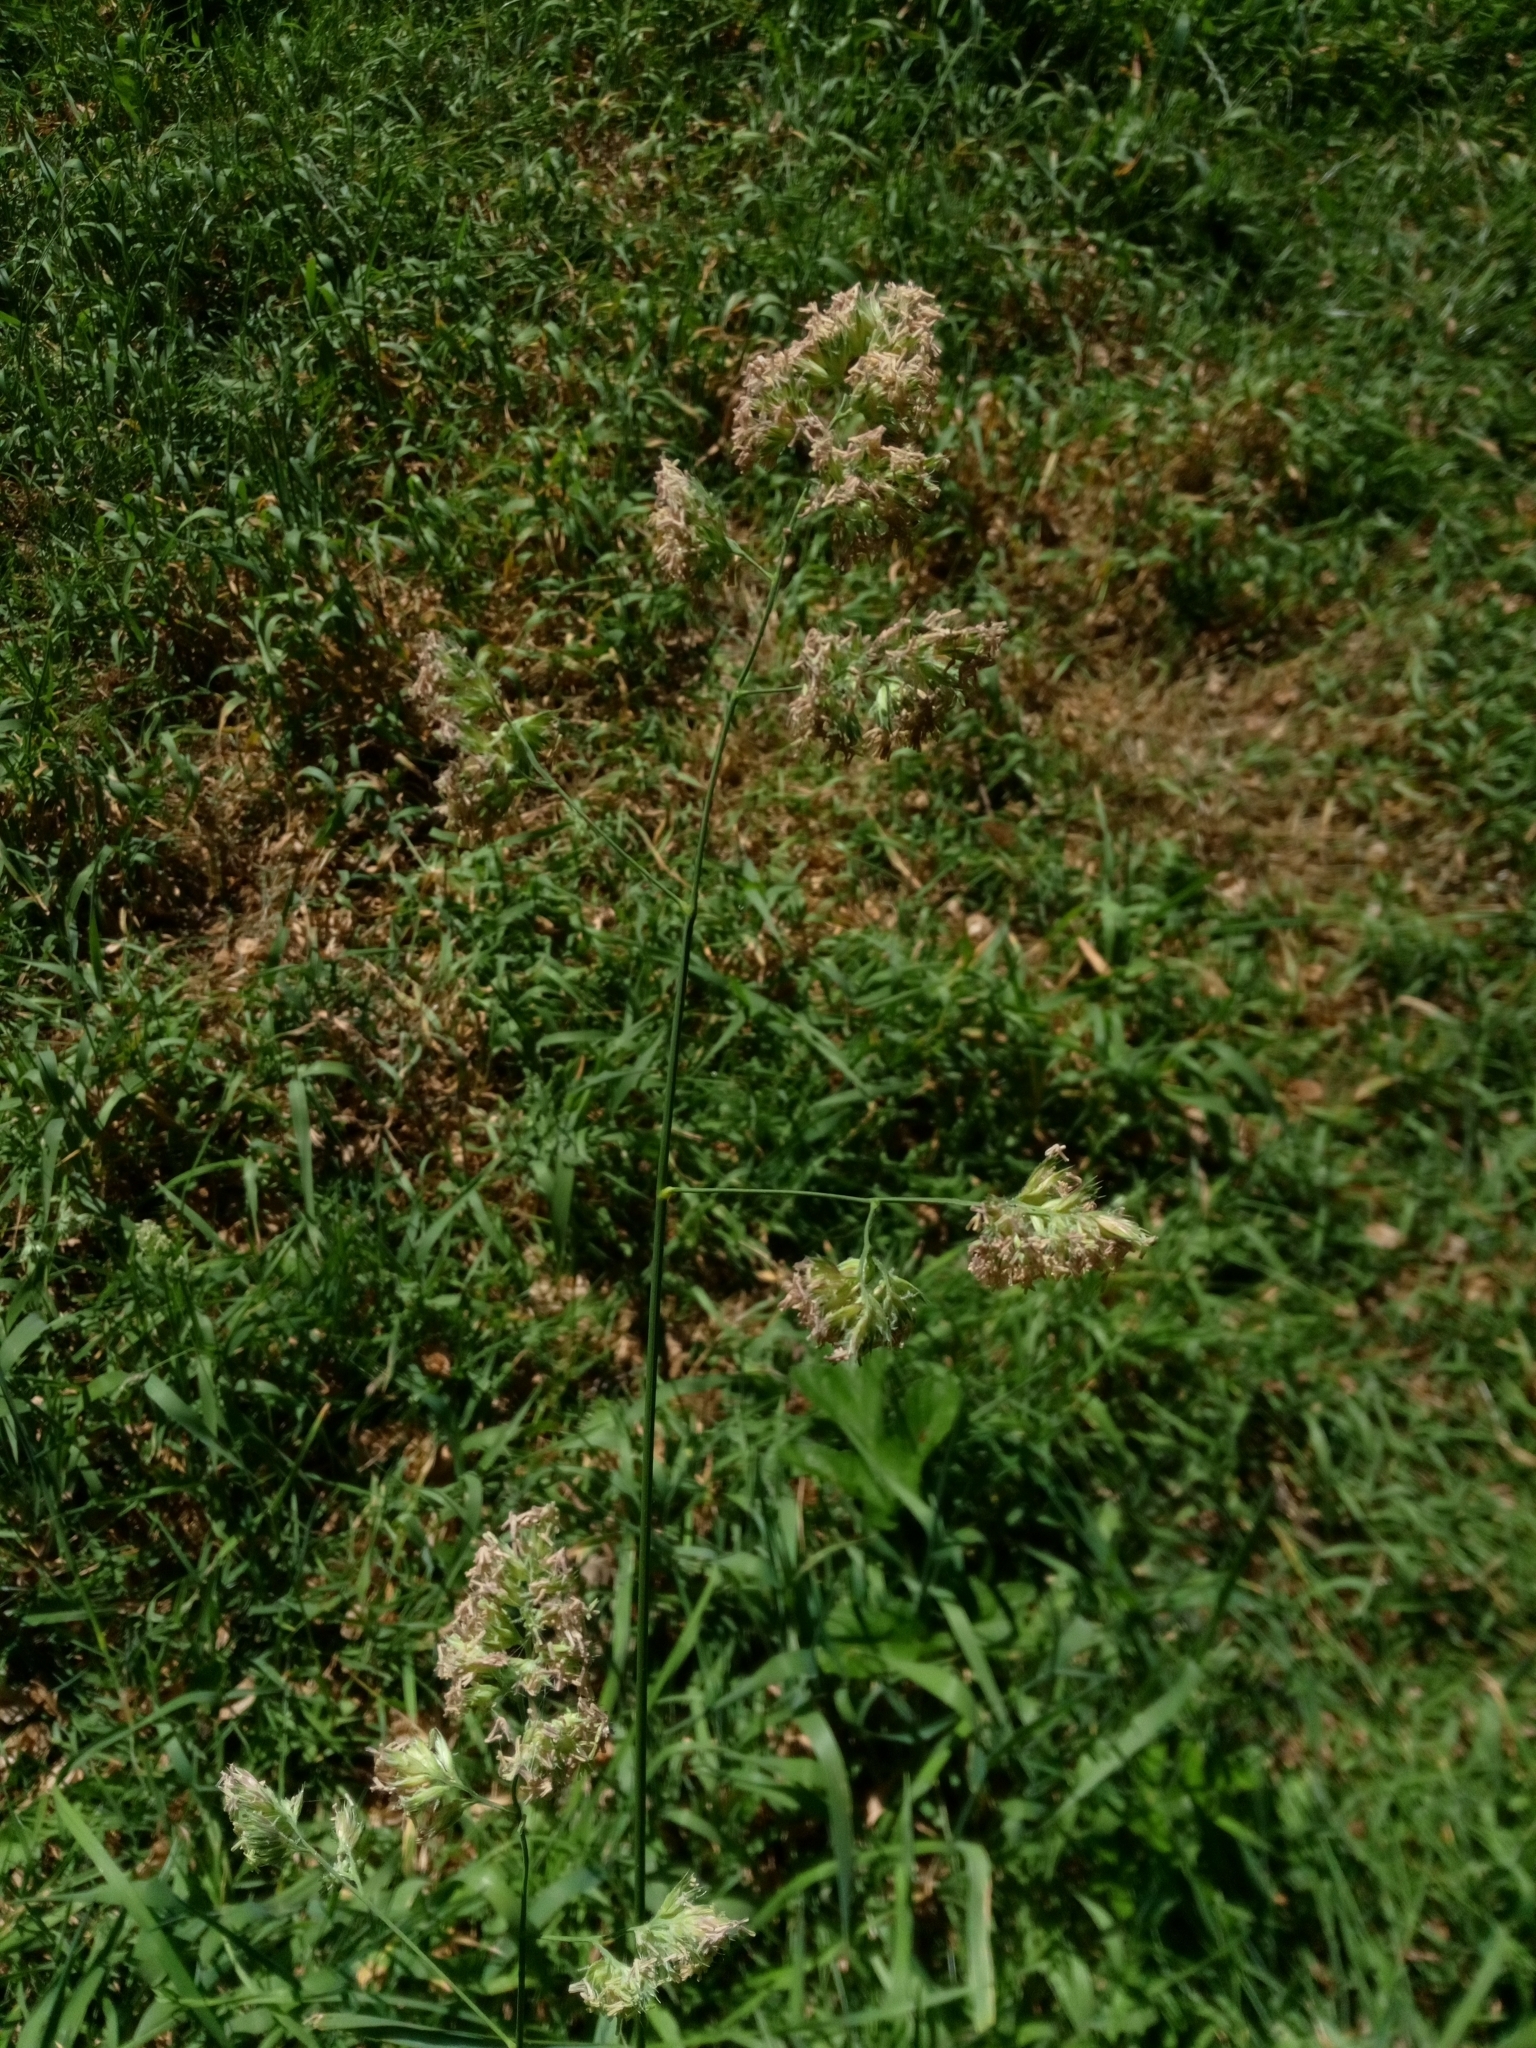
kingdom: Plantae
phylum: Tracheophyta
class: Liliopsida
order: Poales
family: Poaceae
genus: Dactylis
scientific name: Dactylis glomerata
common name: Orchardgrass
